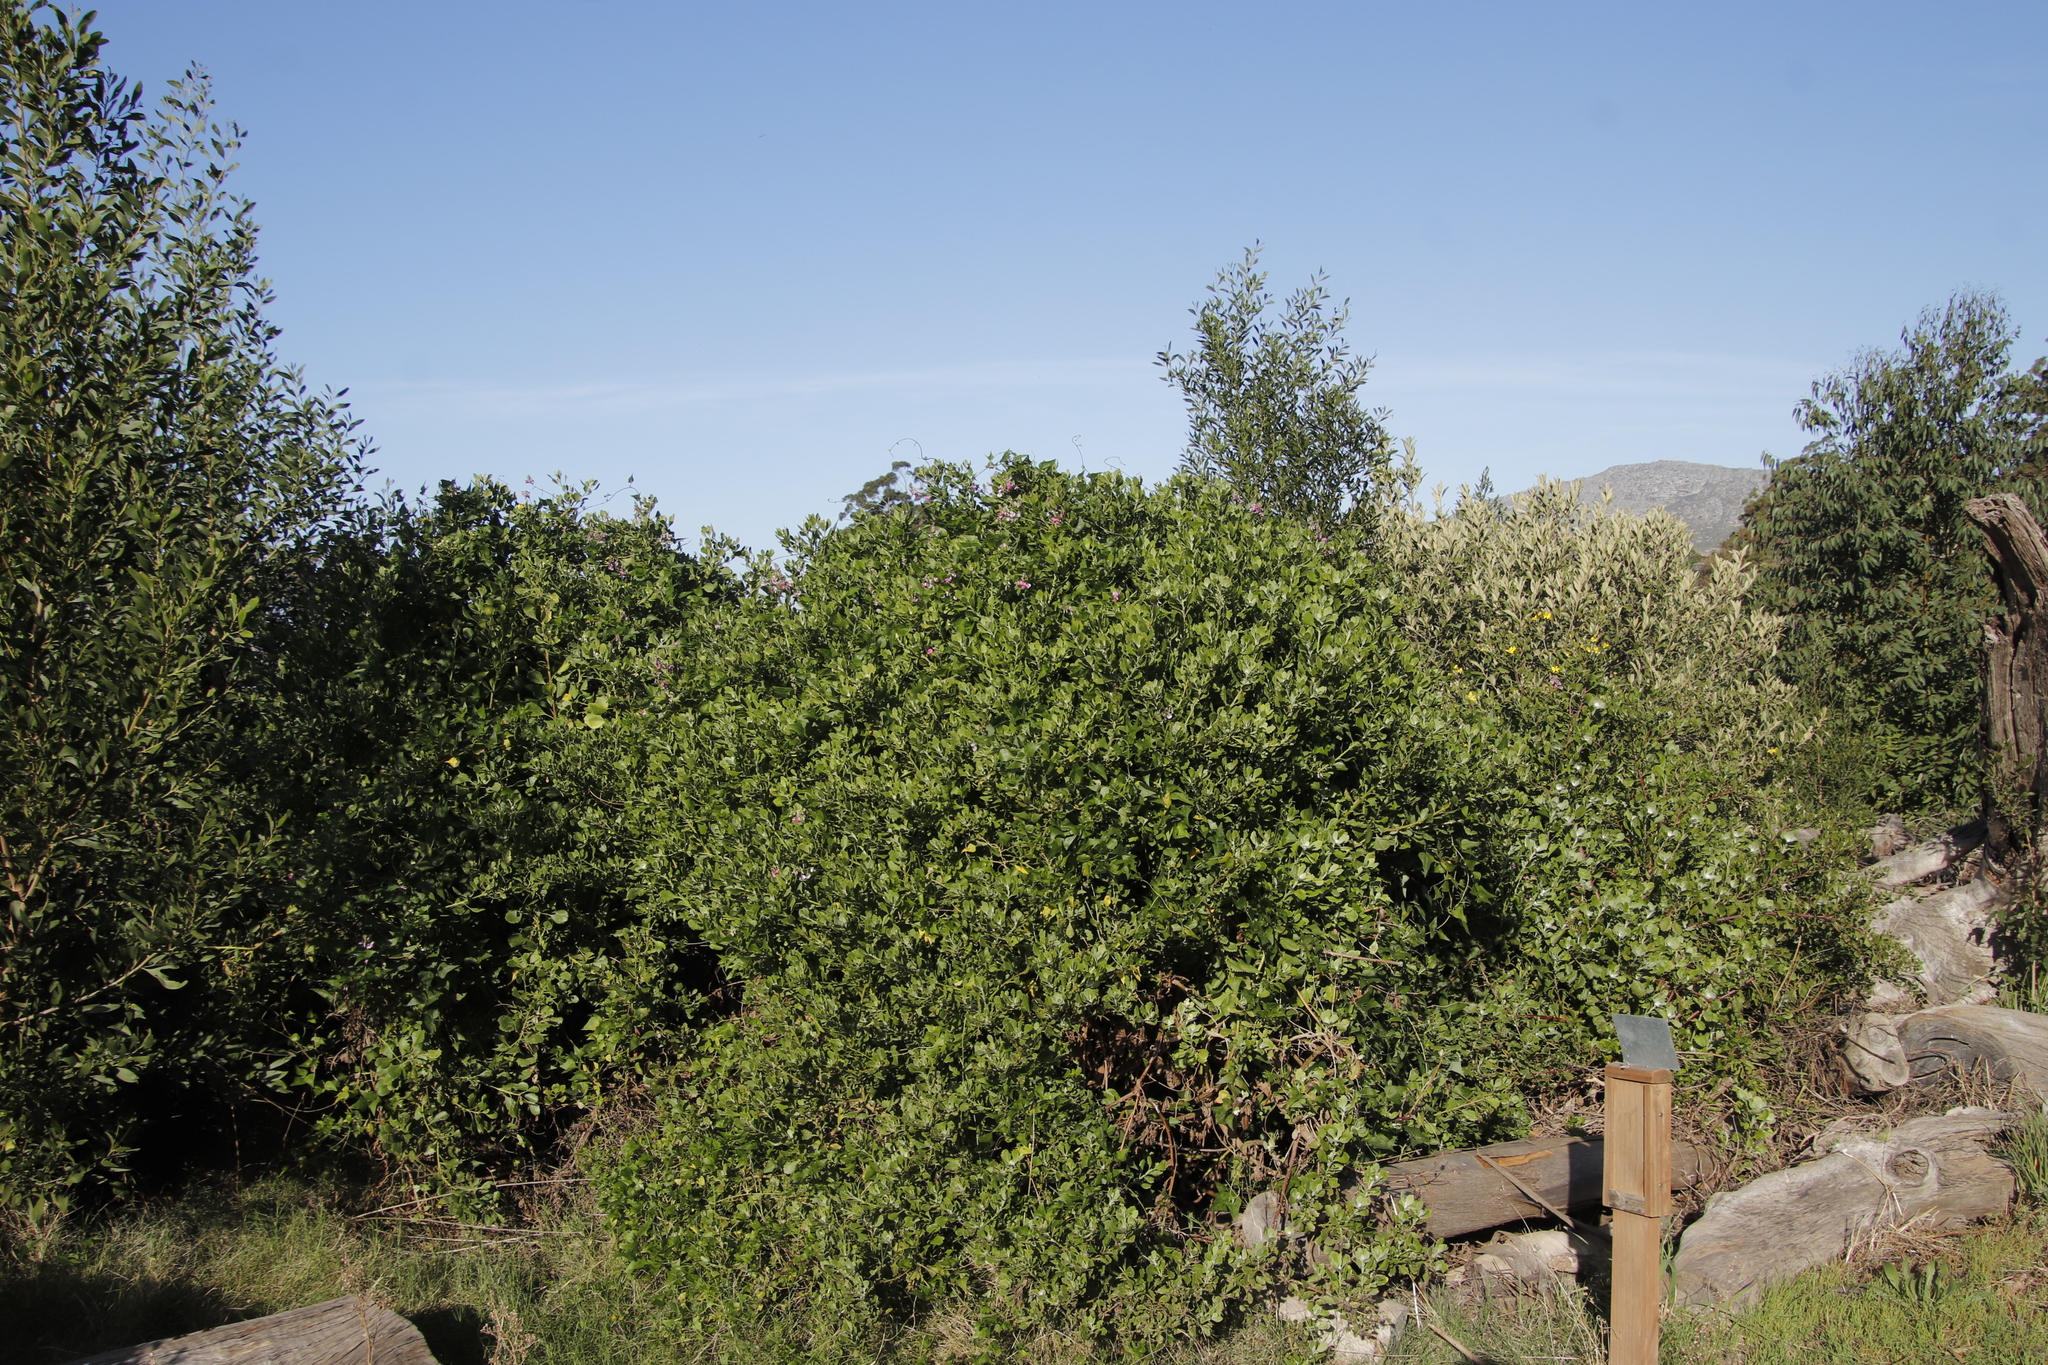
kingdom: Plantae
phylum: Tracheophyta
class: Magnoliopsida
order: Fabales
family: Fabaceae
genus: Dipogon
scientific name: Dipogon lignosus
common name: Okie bean
